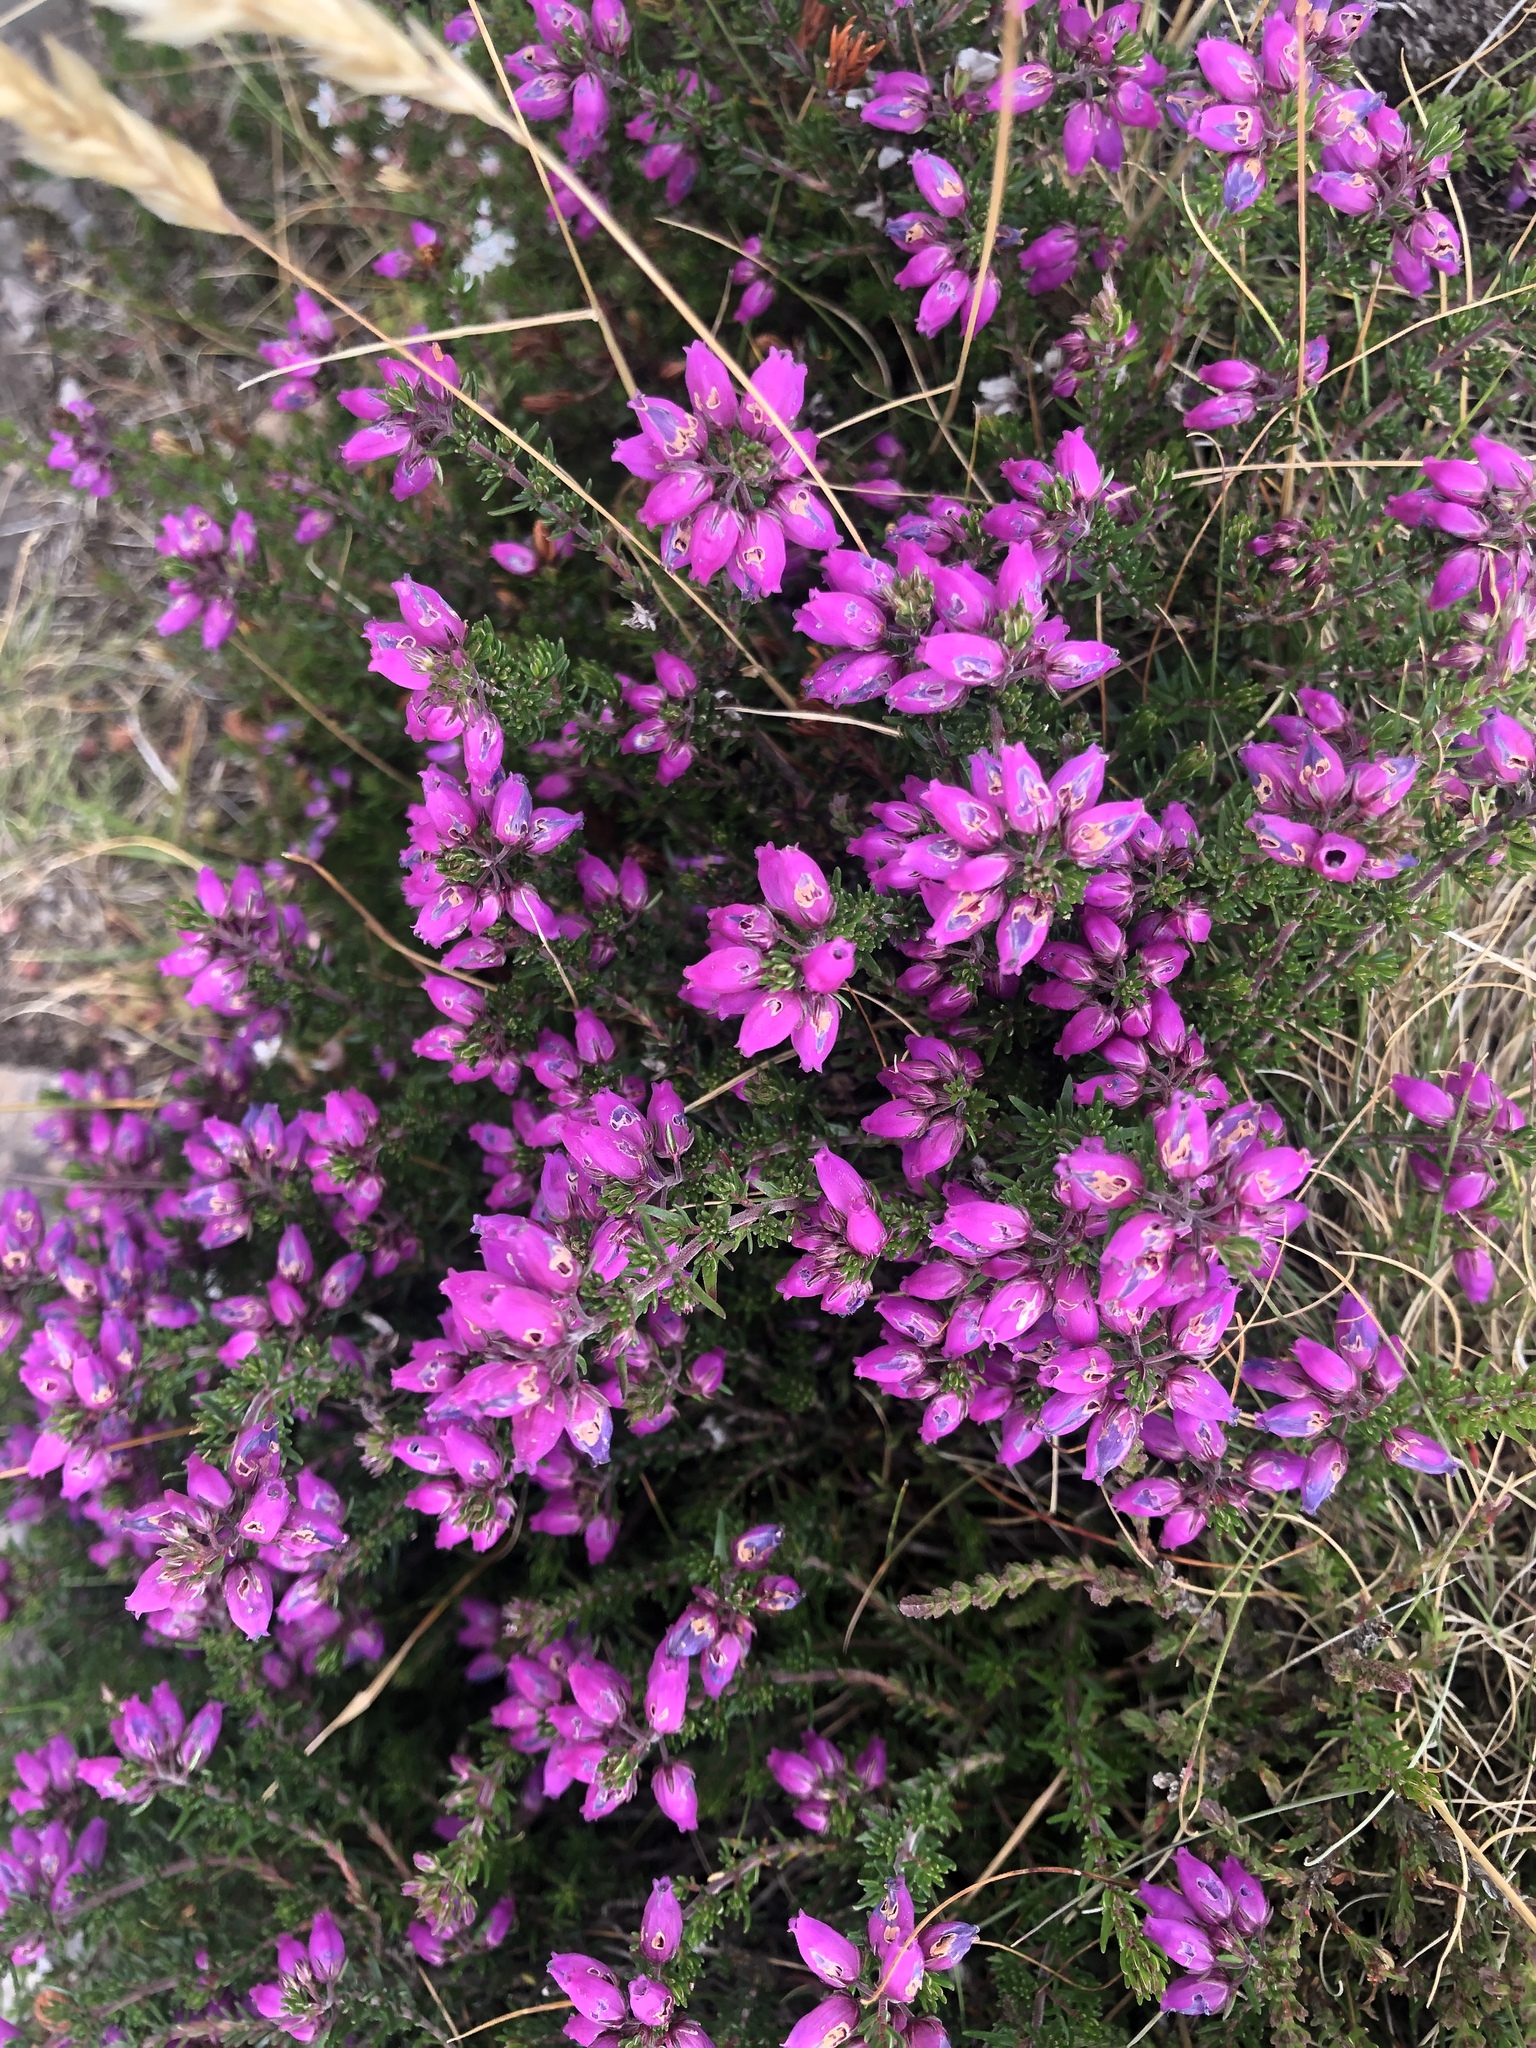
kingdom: Plantae
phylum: Tracheophyta
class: Magnoliopsida
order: Ericales
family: Ericaceae
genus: Erica
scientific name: Erica cinerea
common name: Bell heather
